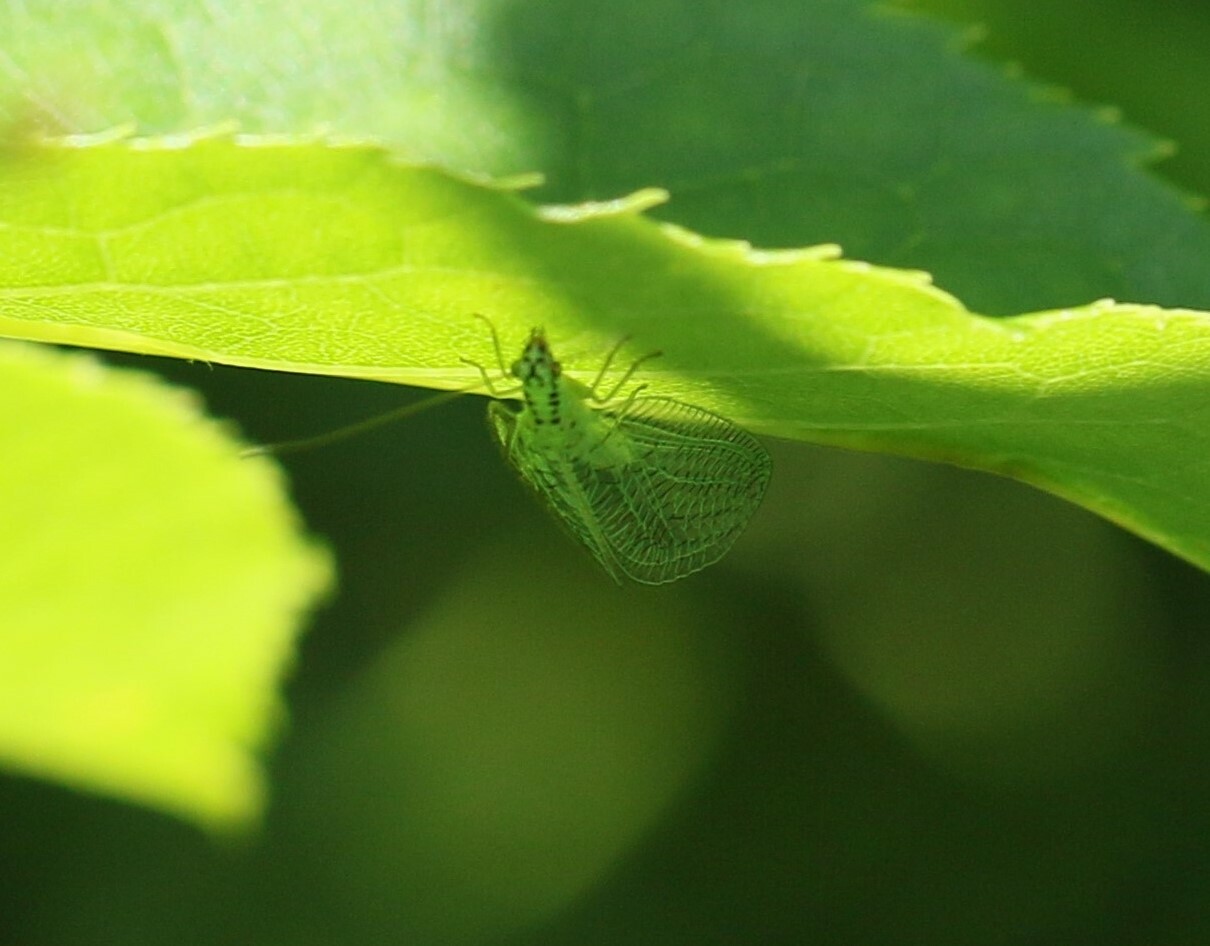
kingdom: Animalia
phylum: Arthropoda
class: Insecta
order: Neuroptera
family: Chrysopidae
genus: Chrysopa
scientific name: Chrysopa chi
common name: X-marked green lacewing
